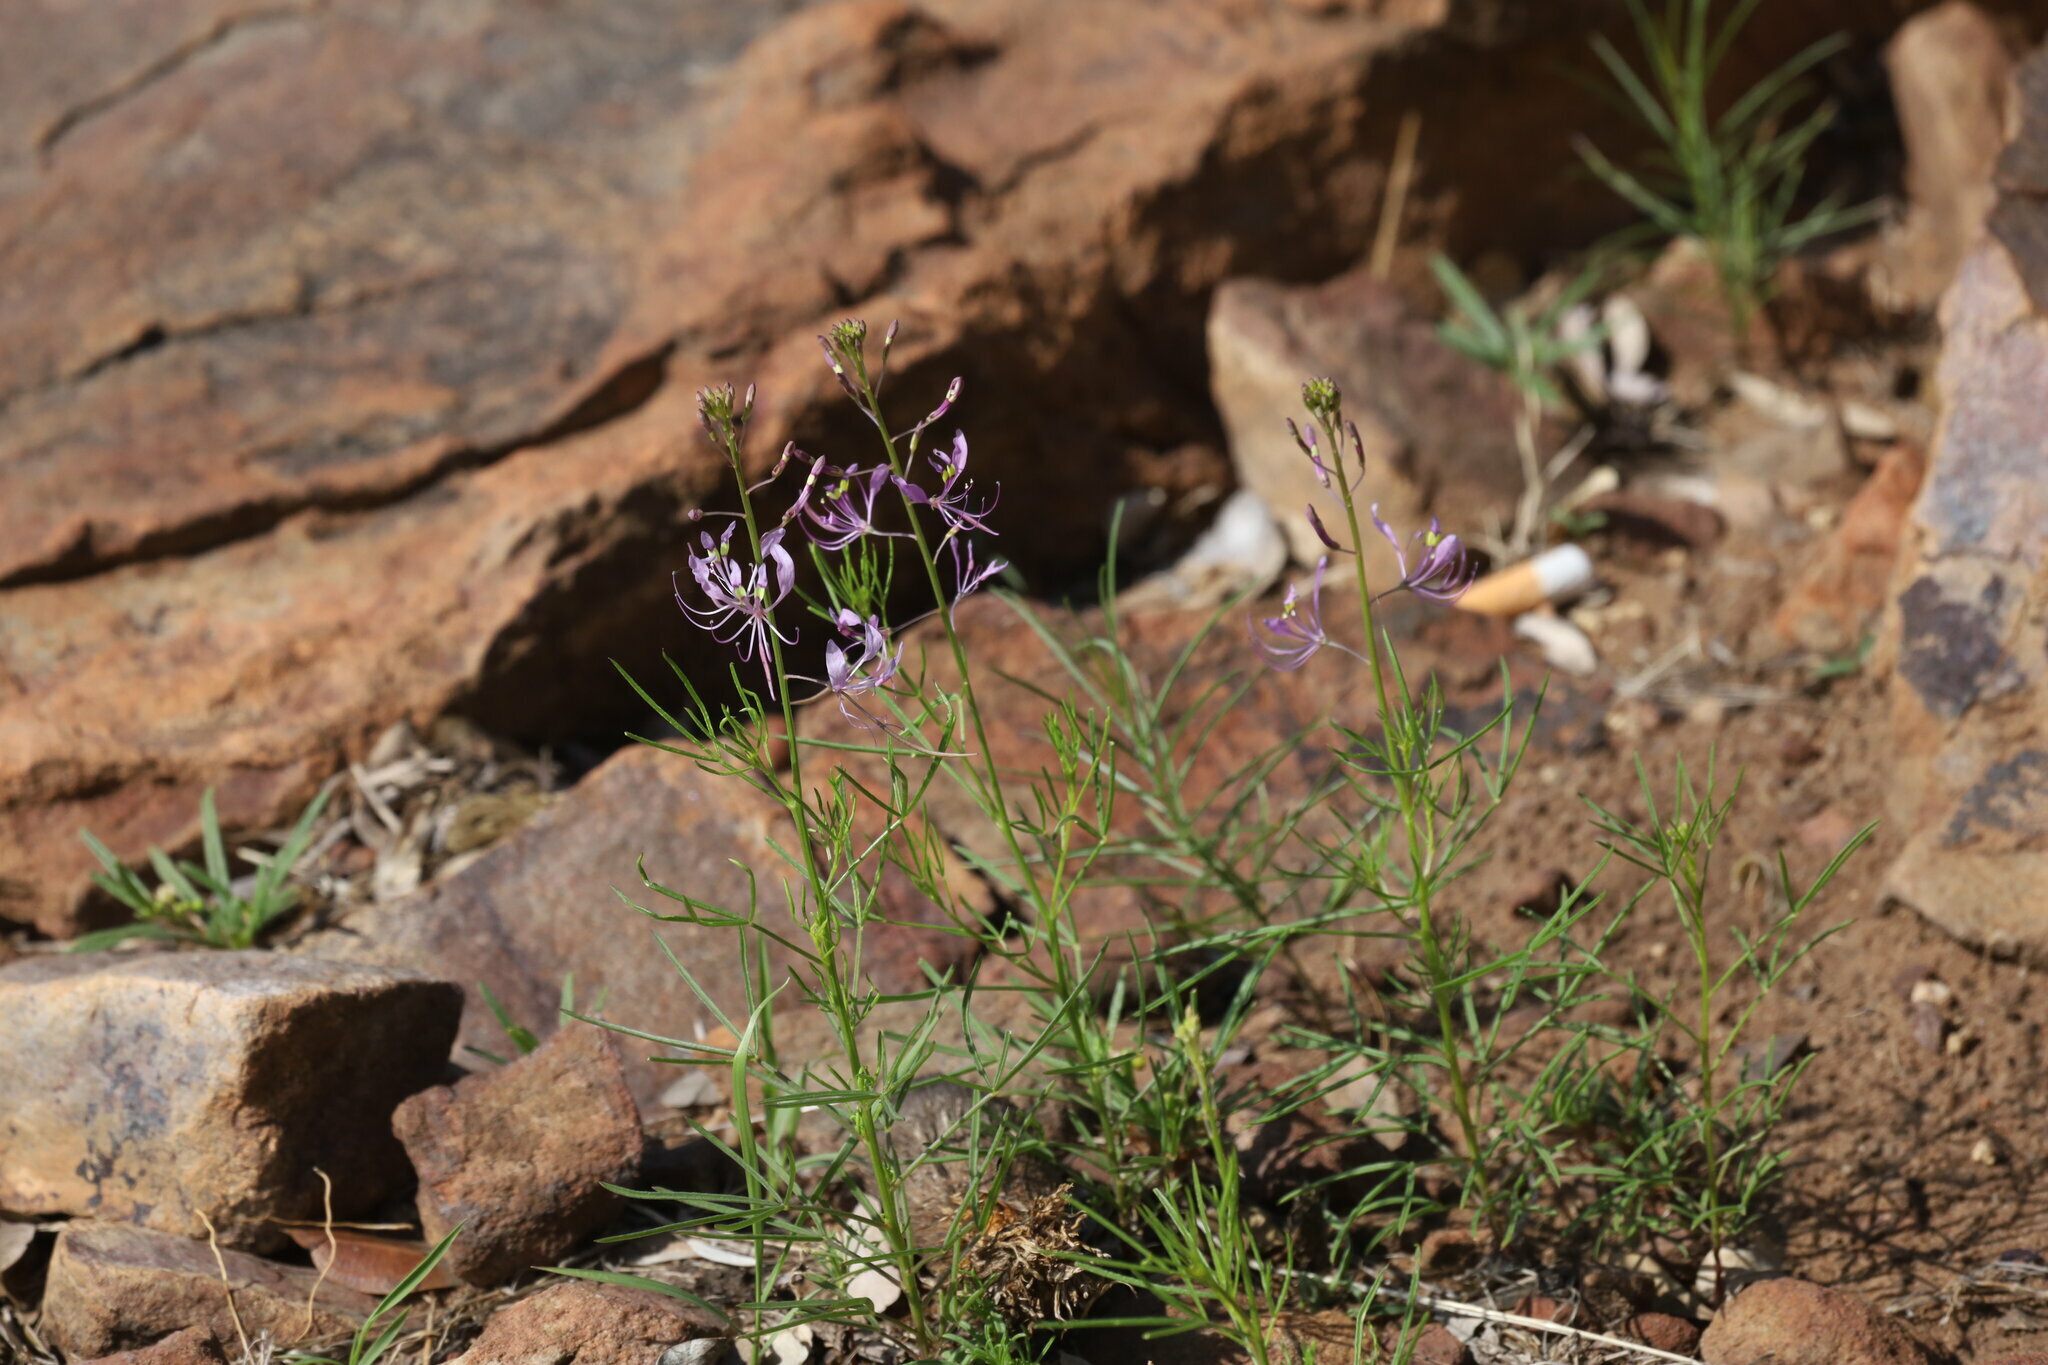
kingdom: Plantae
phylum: Tracheophyta
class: Magnoliopsida
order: Brassicales
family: Cleomaceae
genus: Sieruela
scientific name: Sieruela maculata
